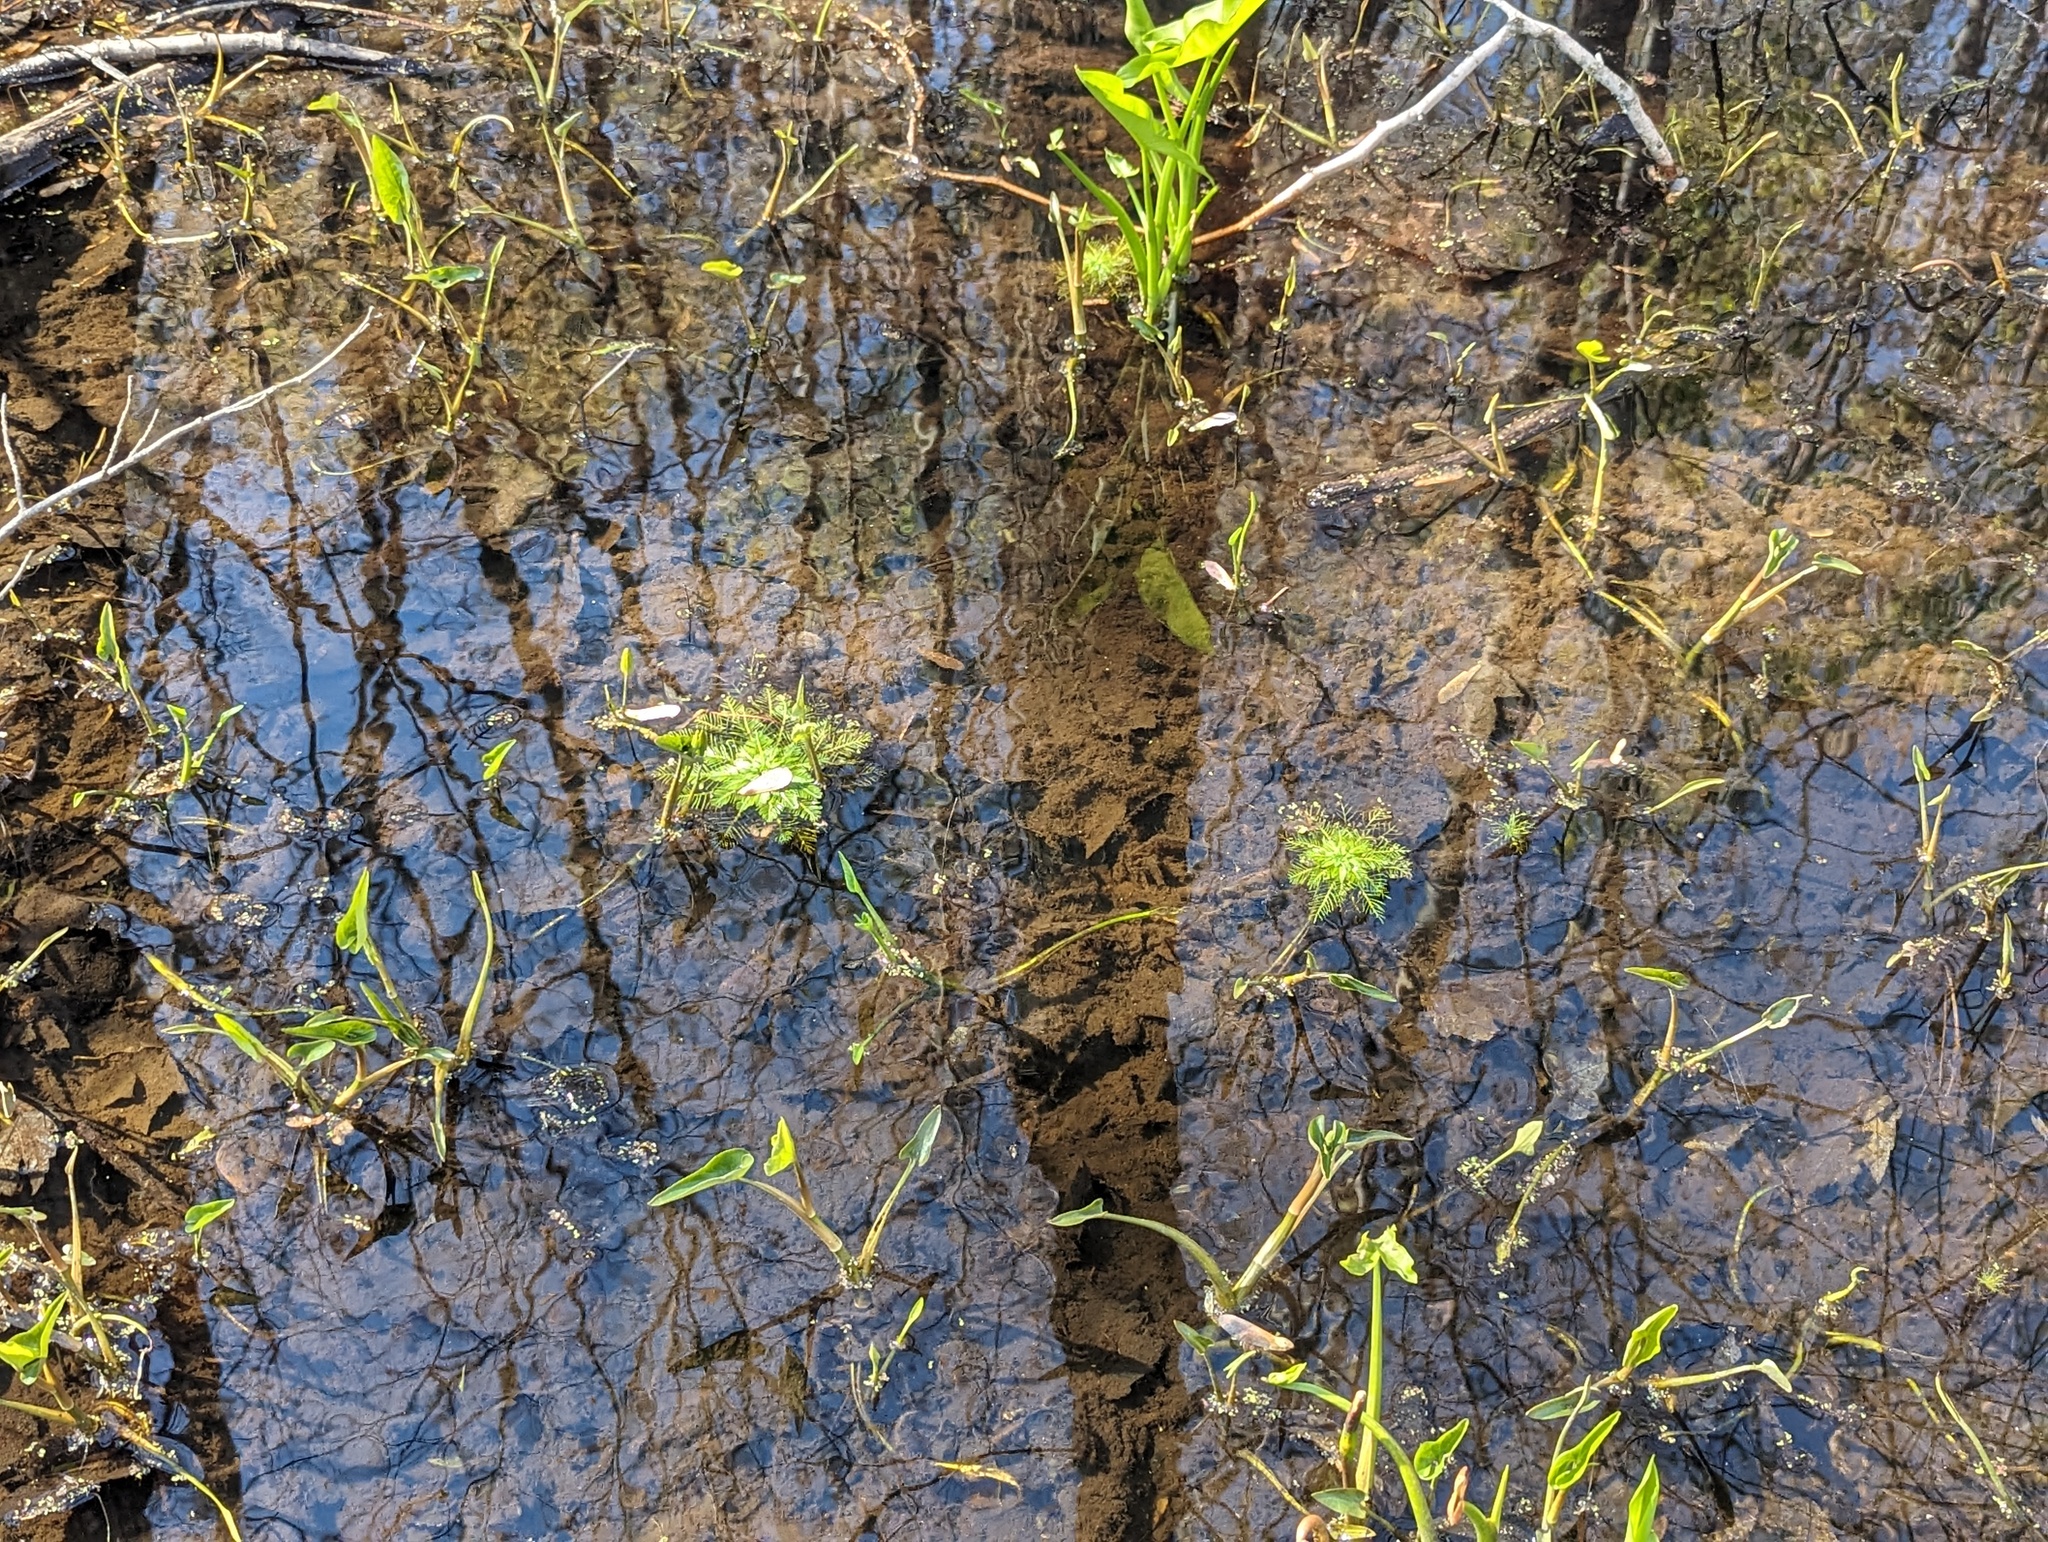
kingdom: Plantae
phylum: Tracheophyta
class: Magnoliopsida
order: Ericales
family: Primulaceae
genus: Hottonia
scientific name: Hottonia inflata
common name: American featherfoil
